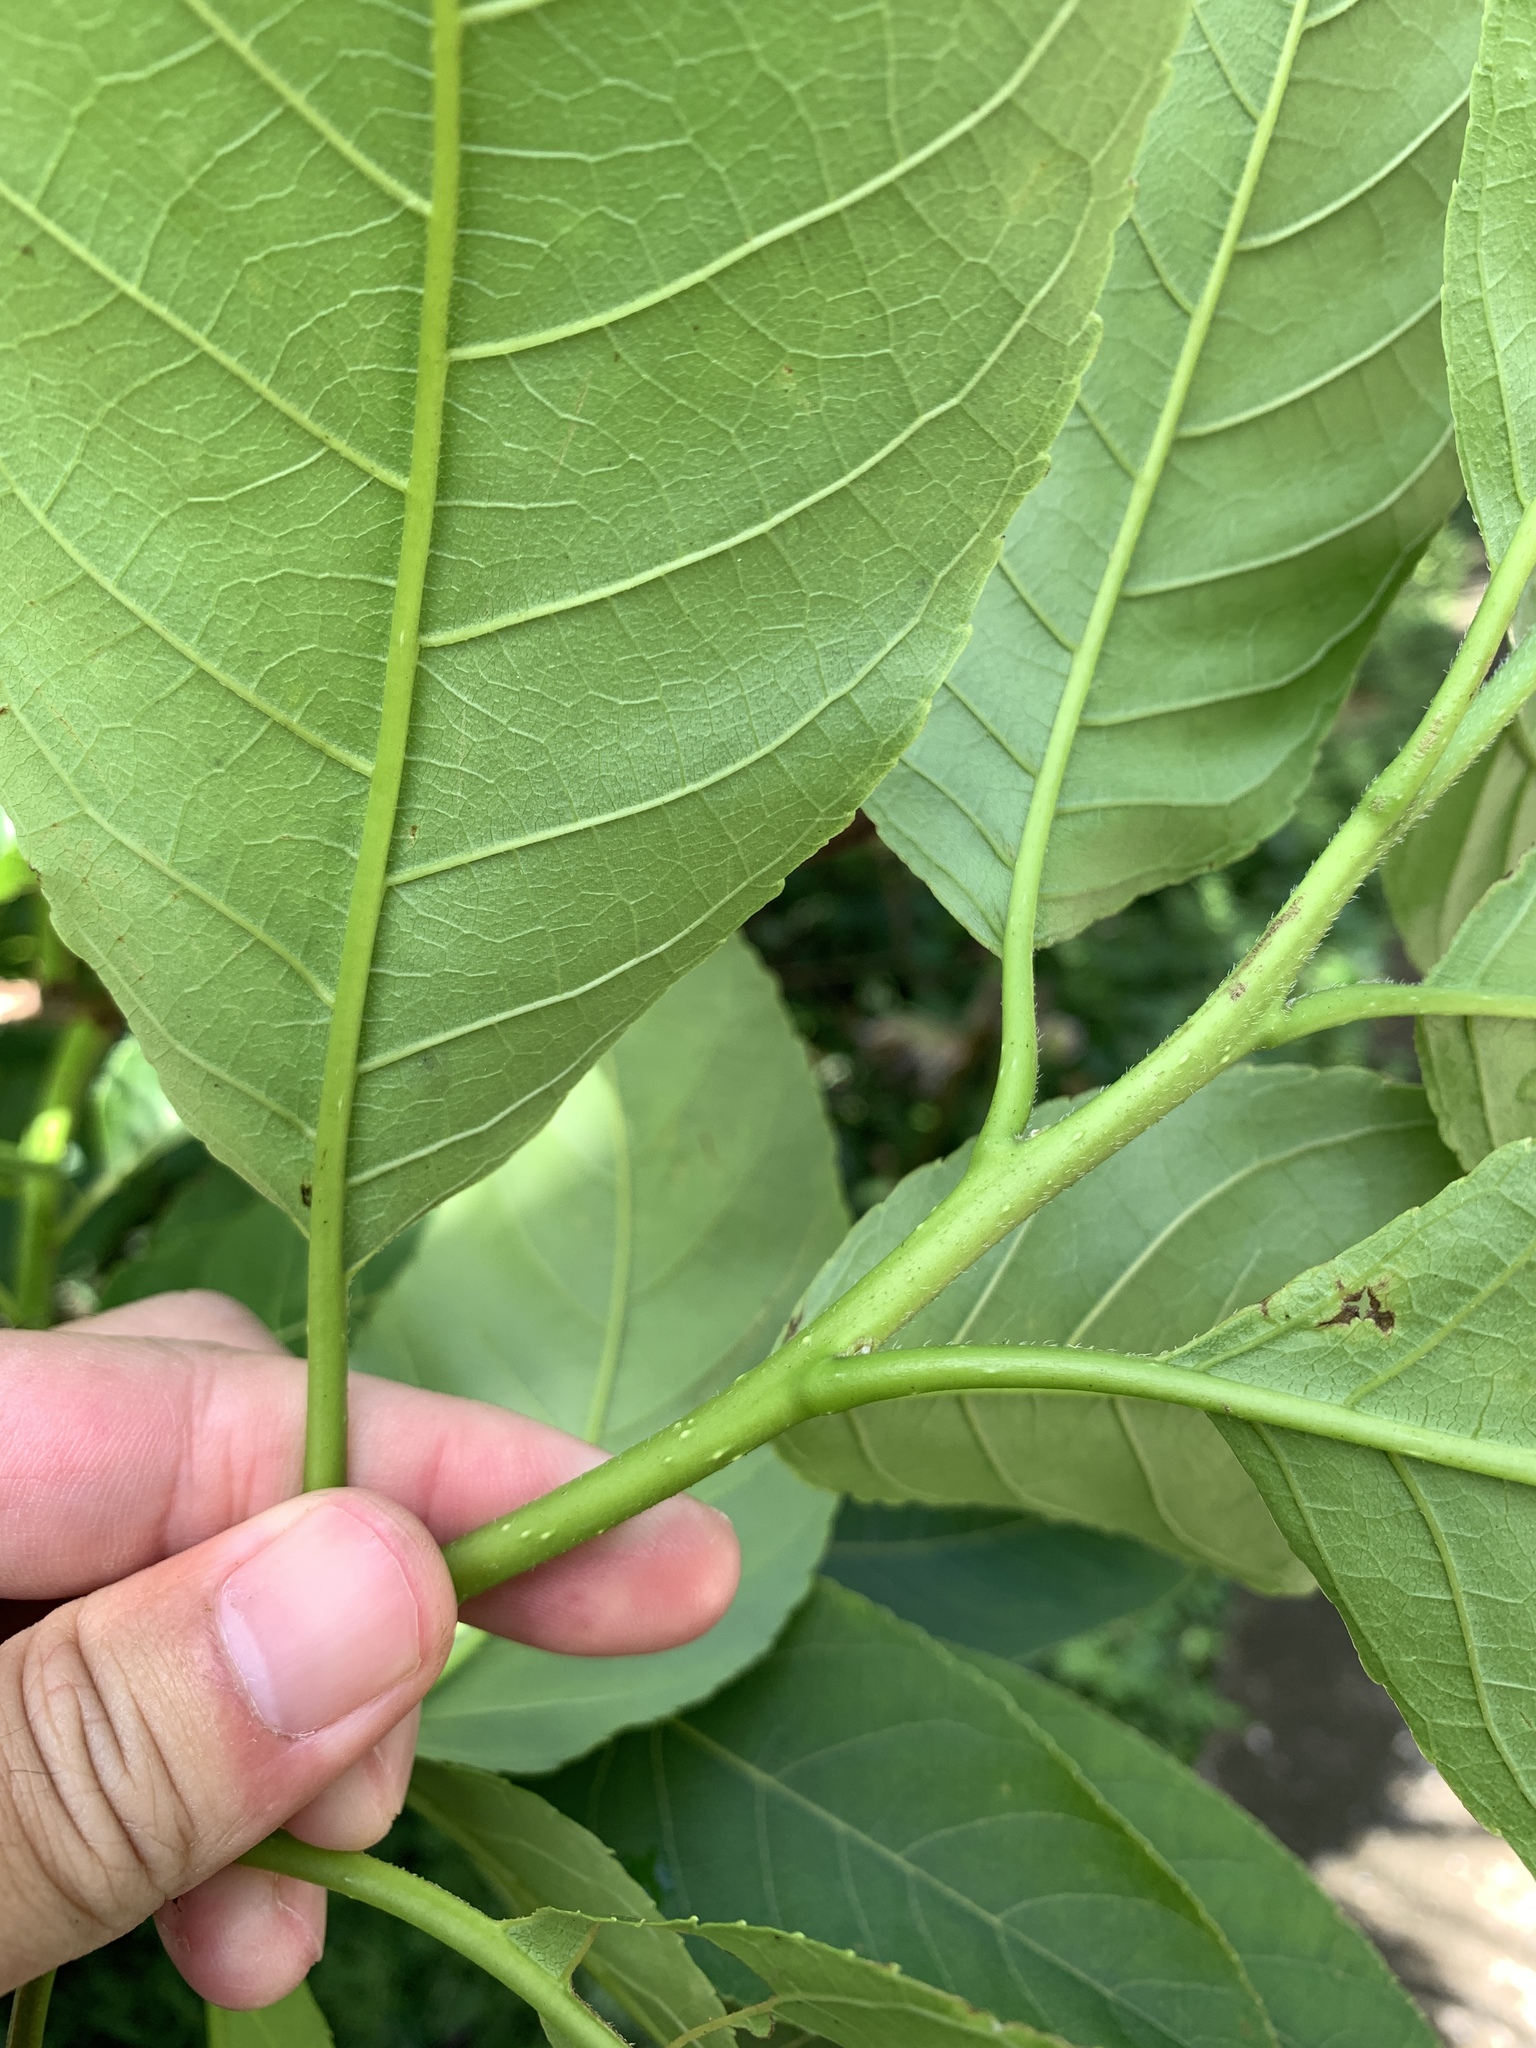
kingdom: Plantae
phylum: Tracheophyta
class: Magnoliopsida
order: Boraginales
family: Ehretiaceae
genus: Ehretia
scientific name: Ehretia acuminata
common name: Kodo wood
